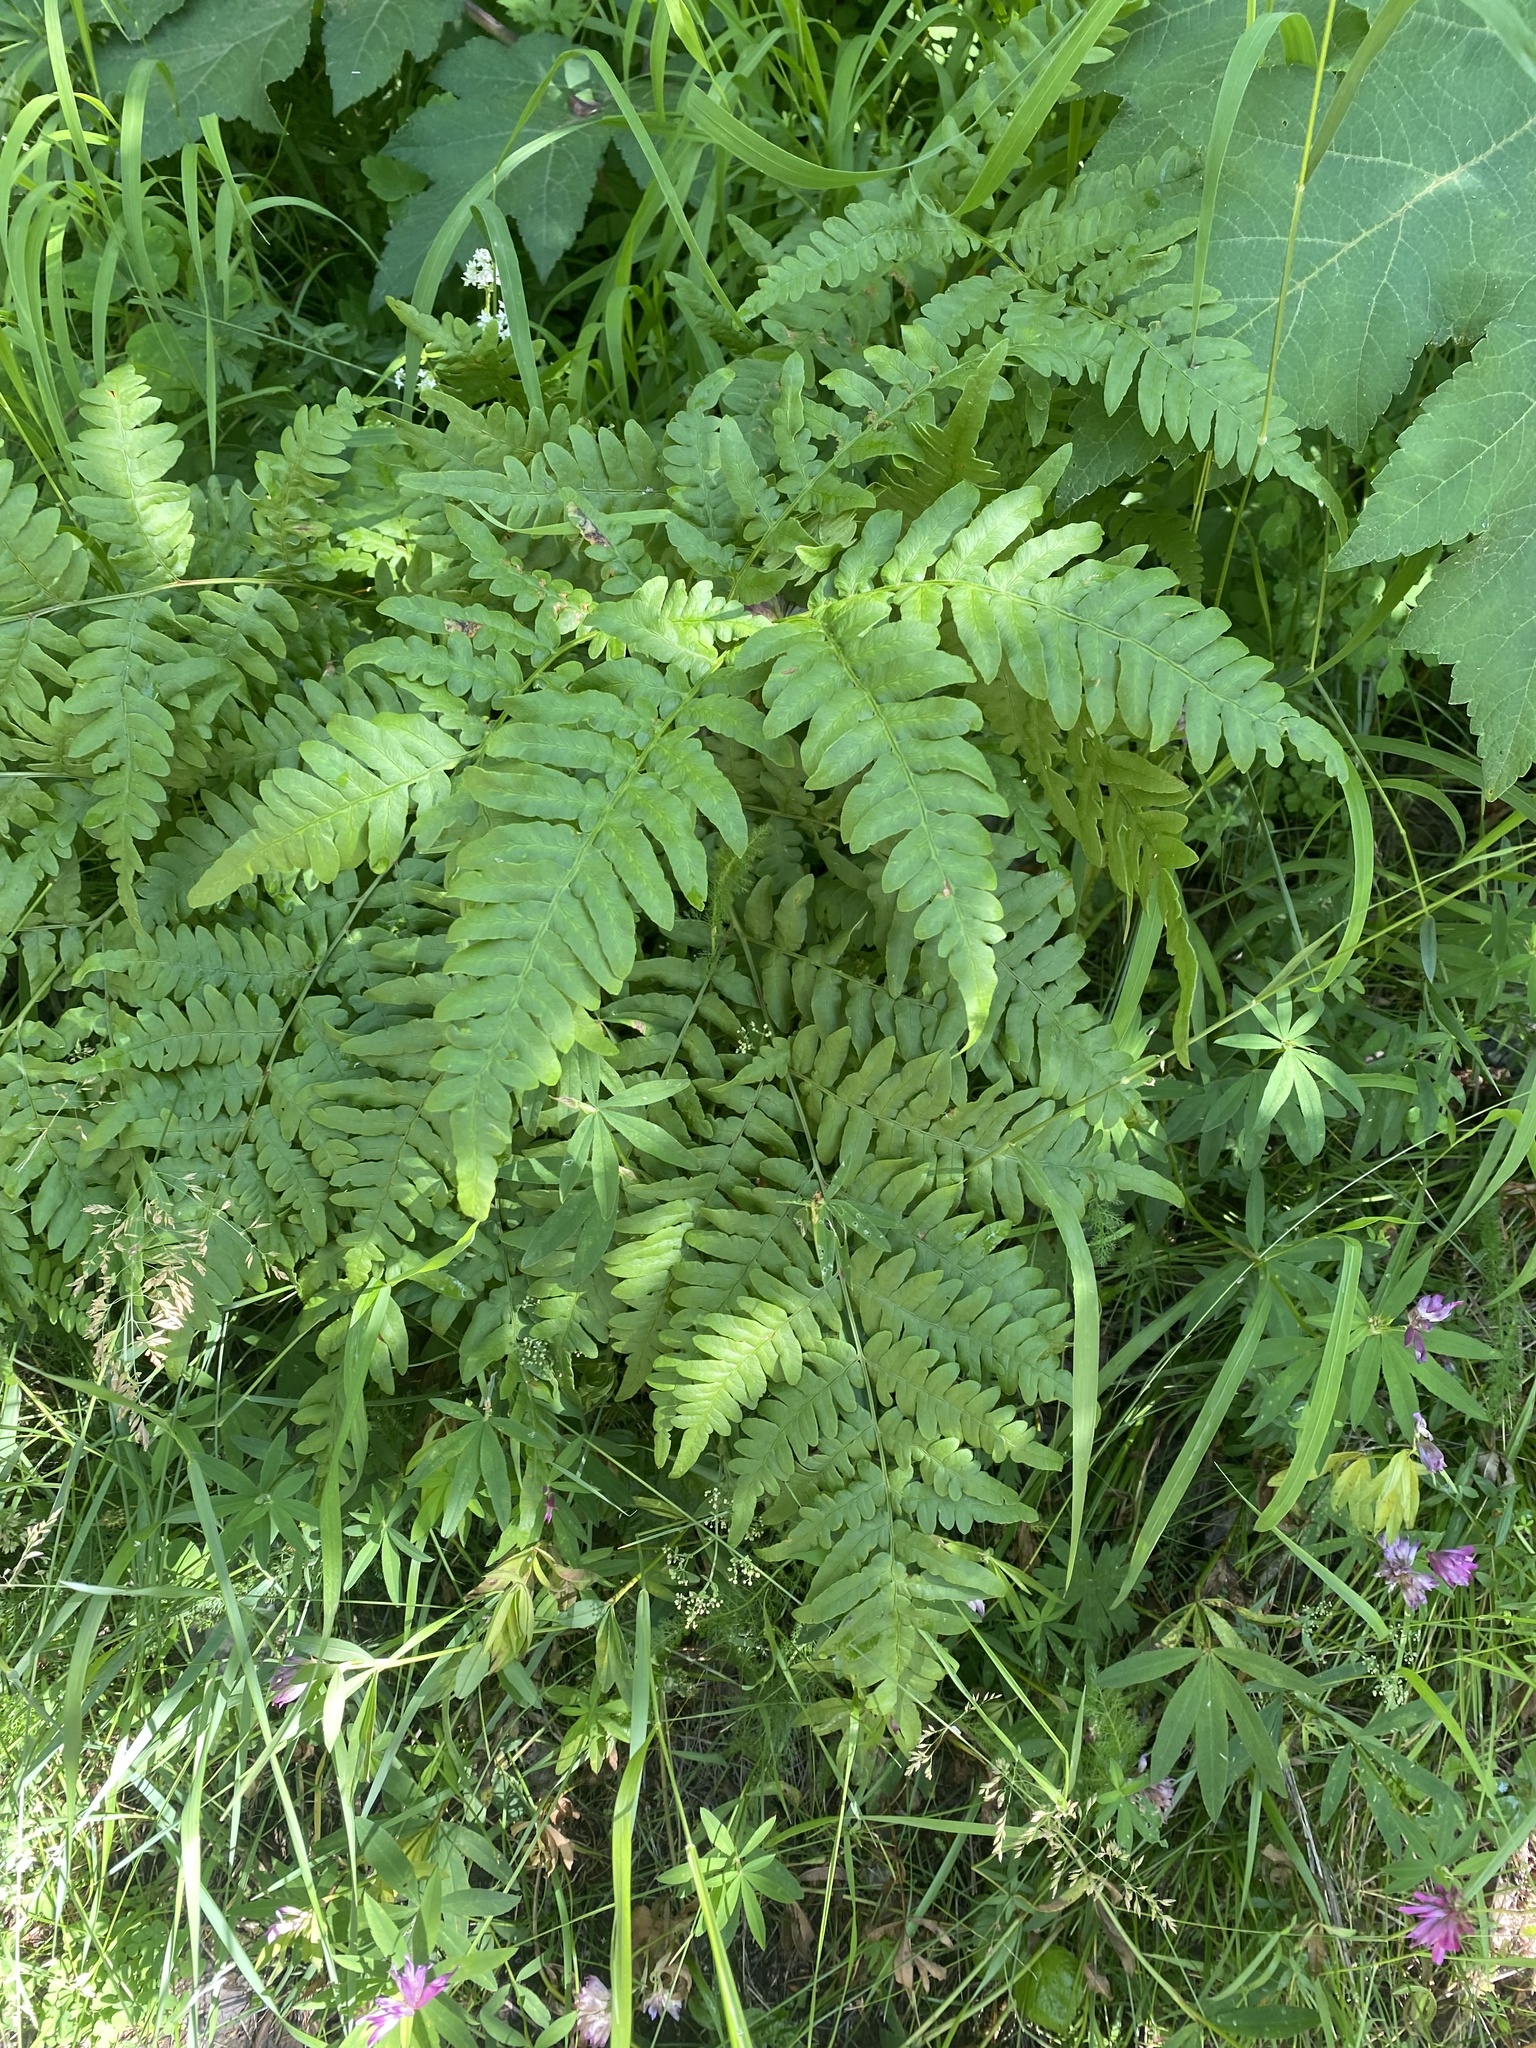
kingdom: Plantae
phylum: Tracheophyta
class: Polypodiopsida
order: Polypodiales
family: Dennstaedtiaceae
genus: Pteridium
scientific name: Pteridium aquilinum
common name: Bracken
